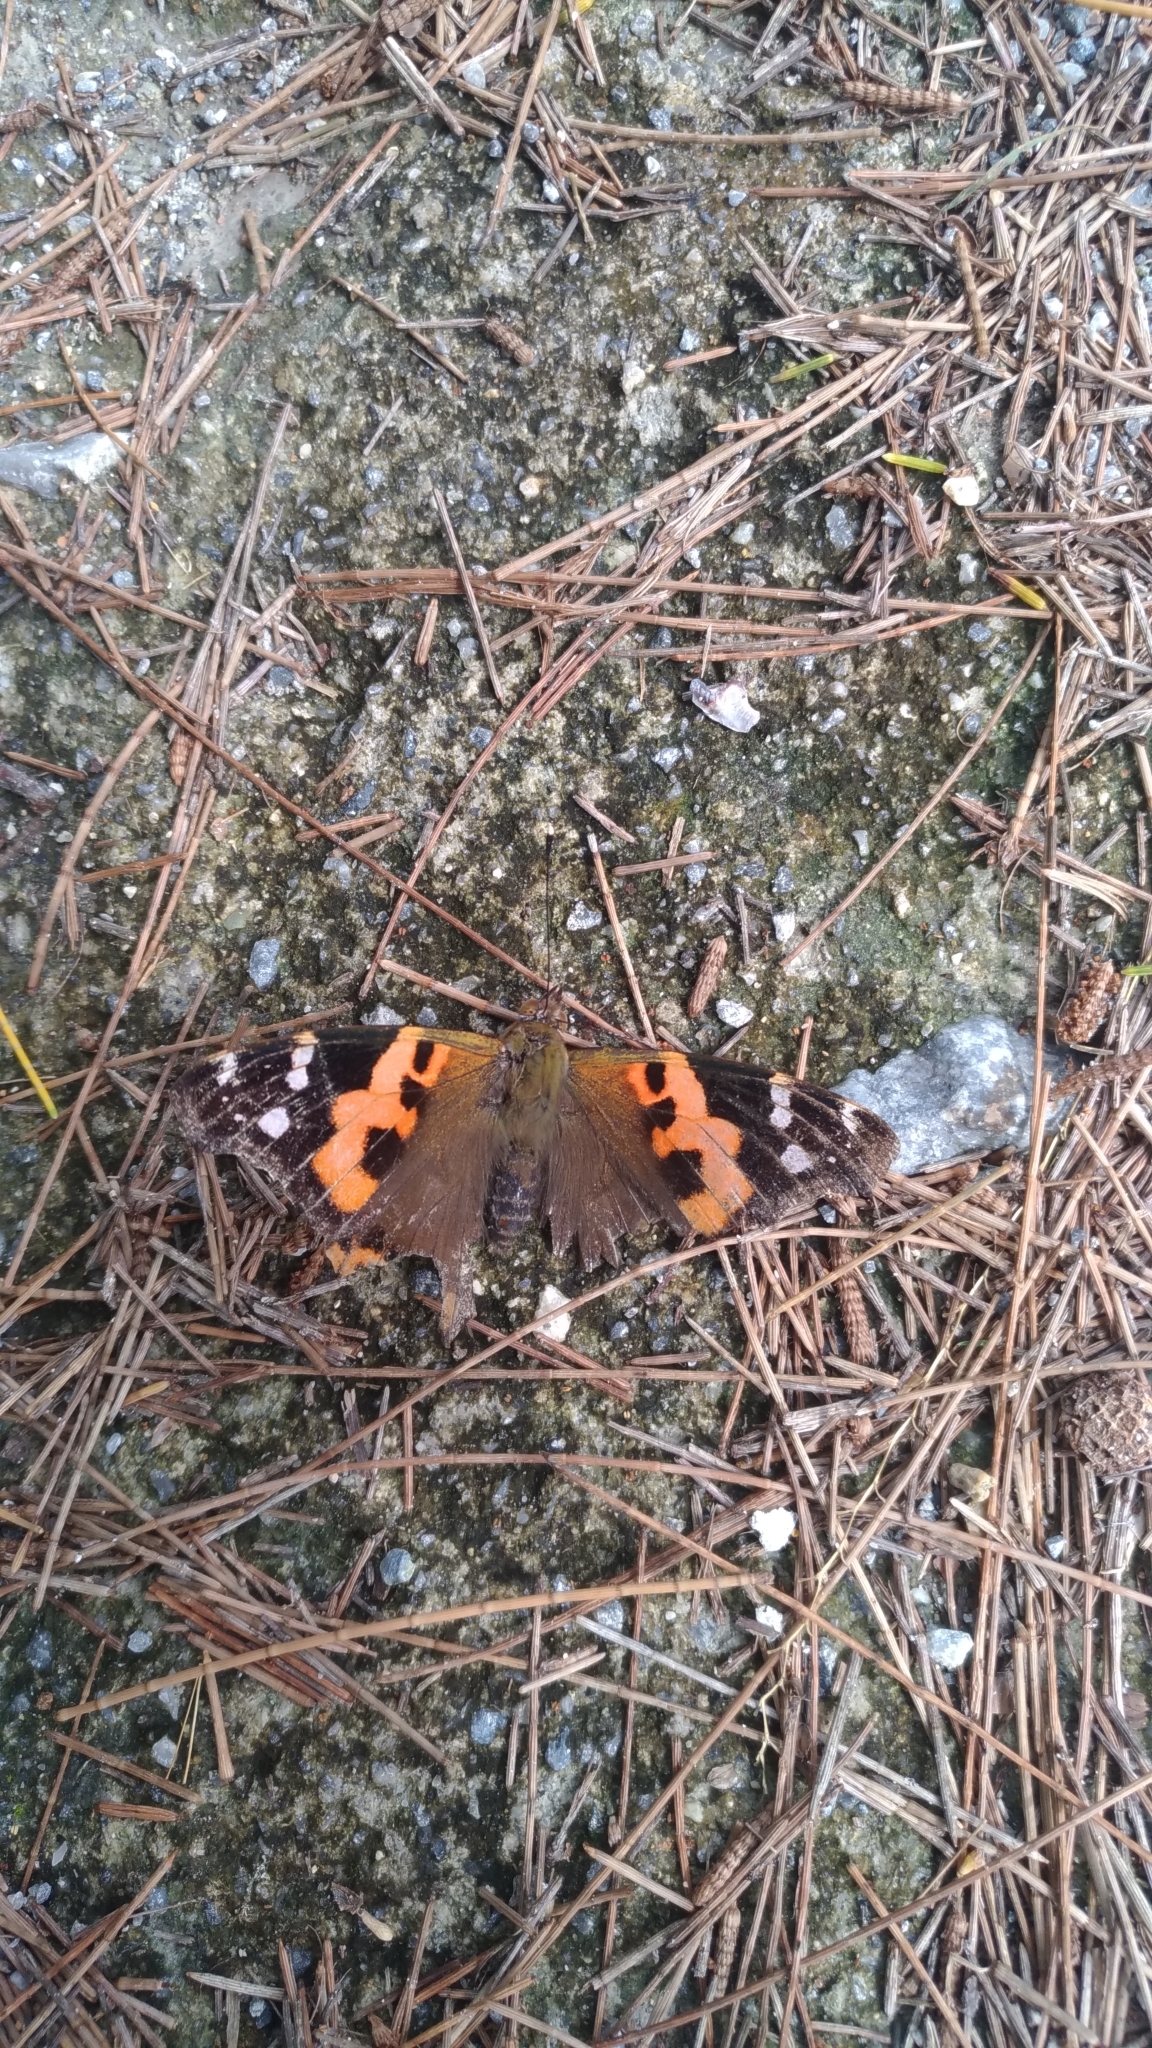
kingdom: Animalia
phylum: Arthropoda
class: Insecta
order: Lepidoptera
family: Nymphalidae
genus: Vanessa
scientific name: Vanessa indica
